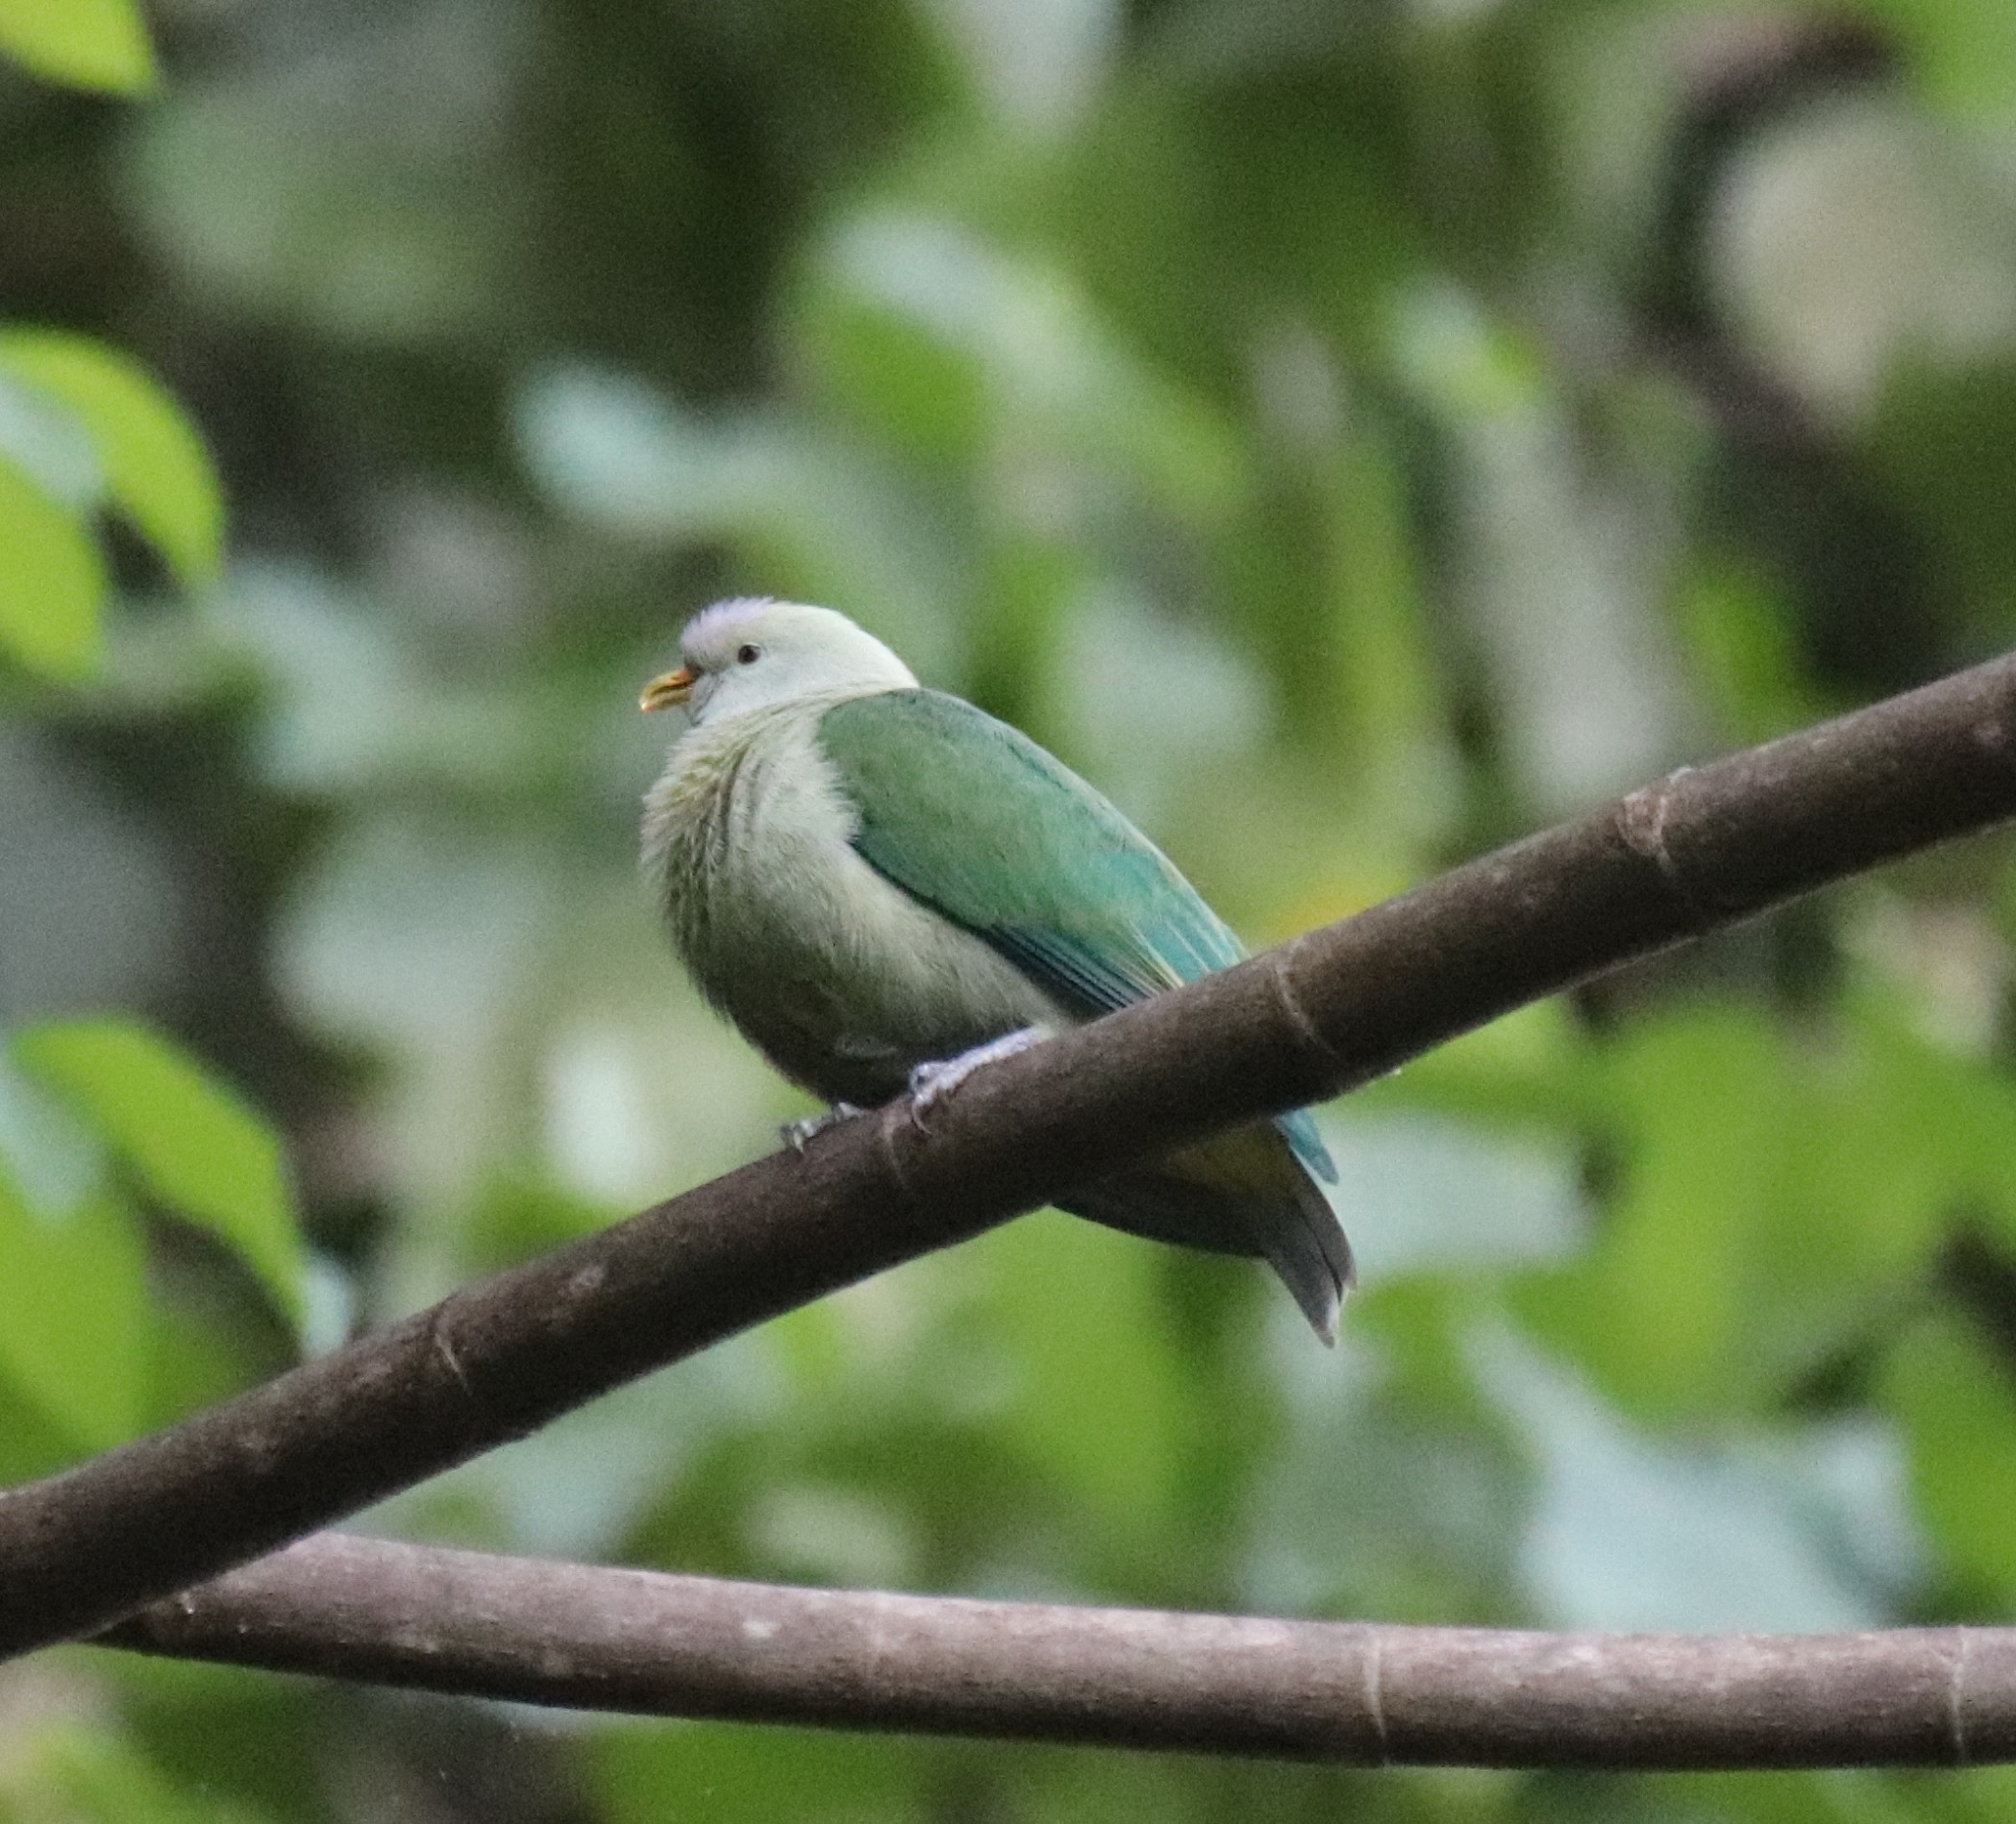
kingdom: Animalia
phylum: Chordata
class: Aves
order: Columbiformes
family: Columbidae
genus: Ptilinopus
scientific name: Ptilinopus purpuratus
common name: Grey-green fruit dove
